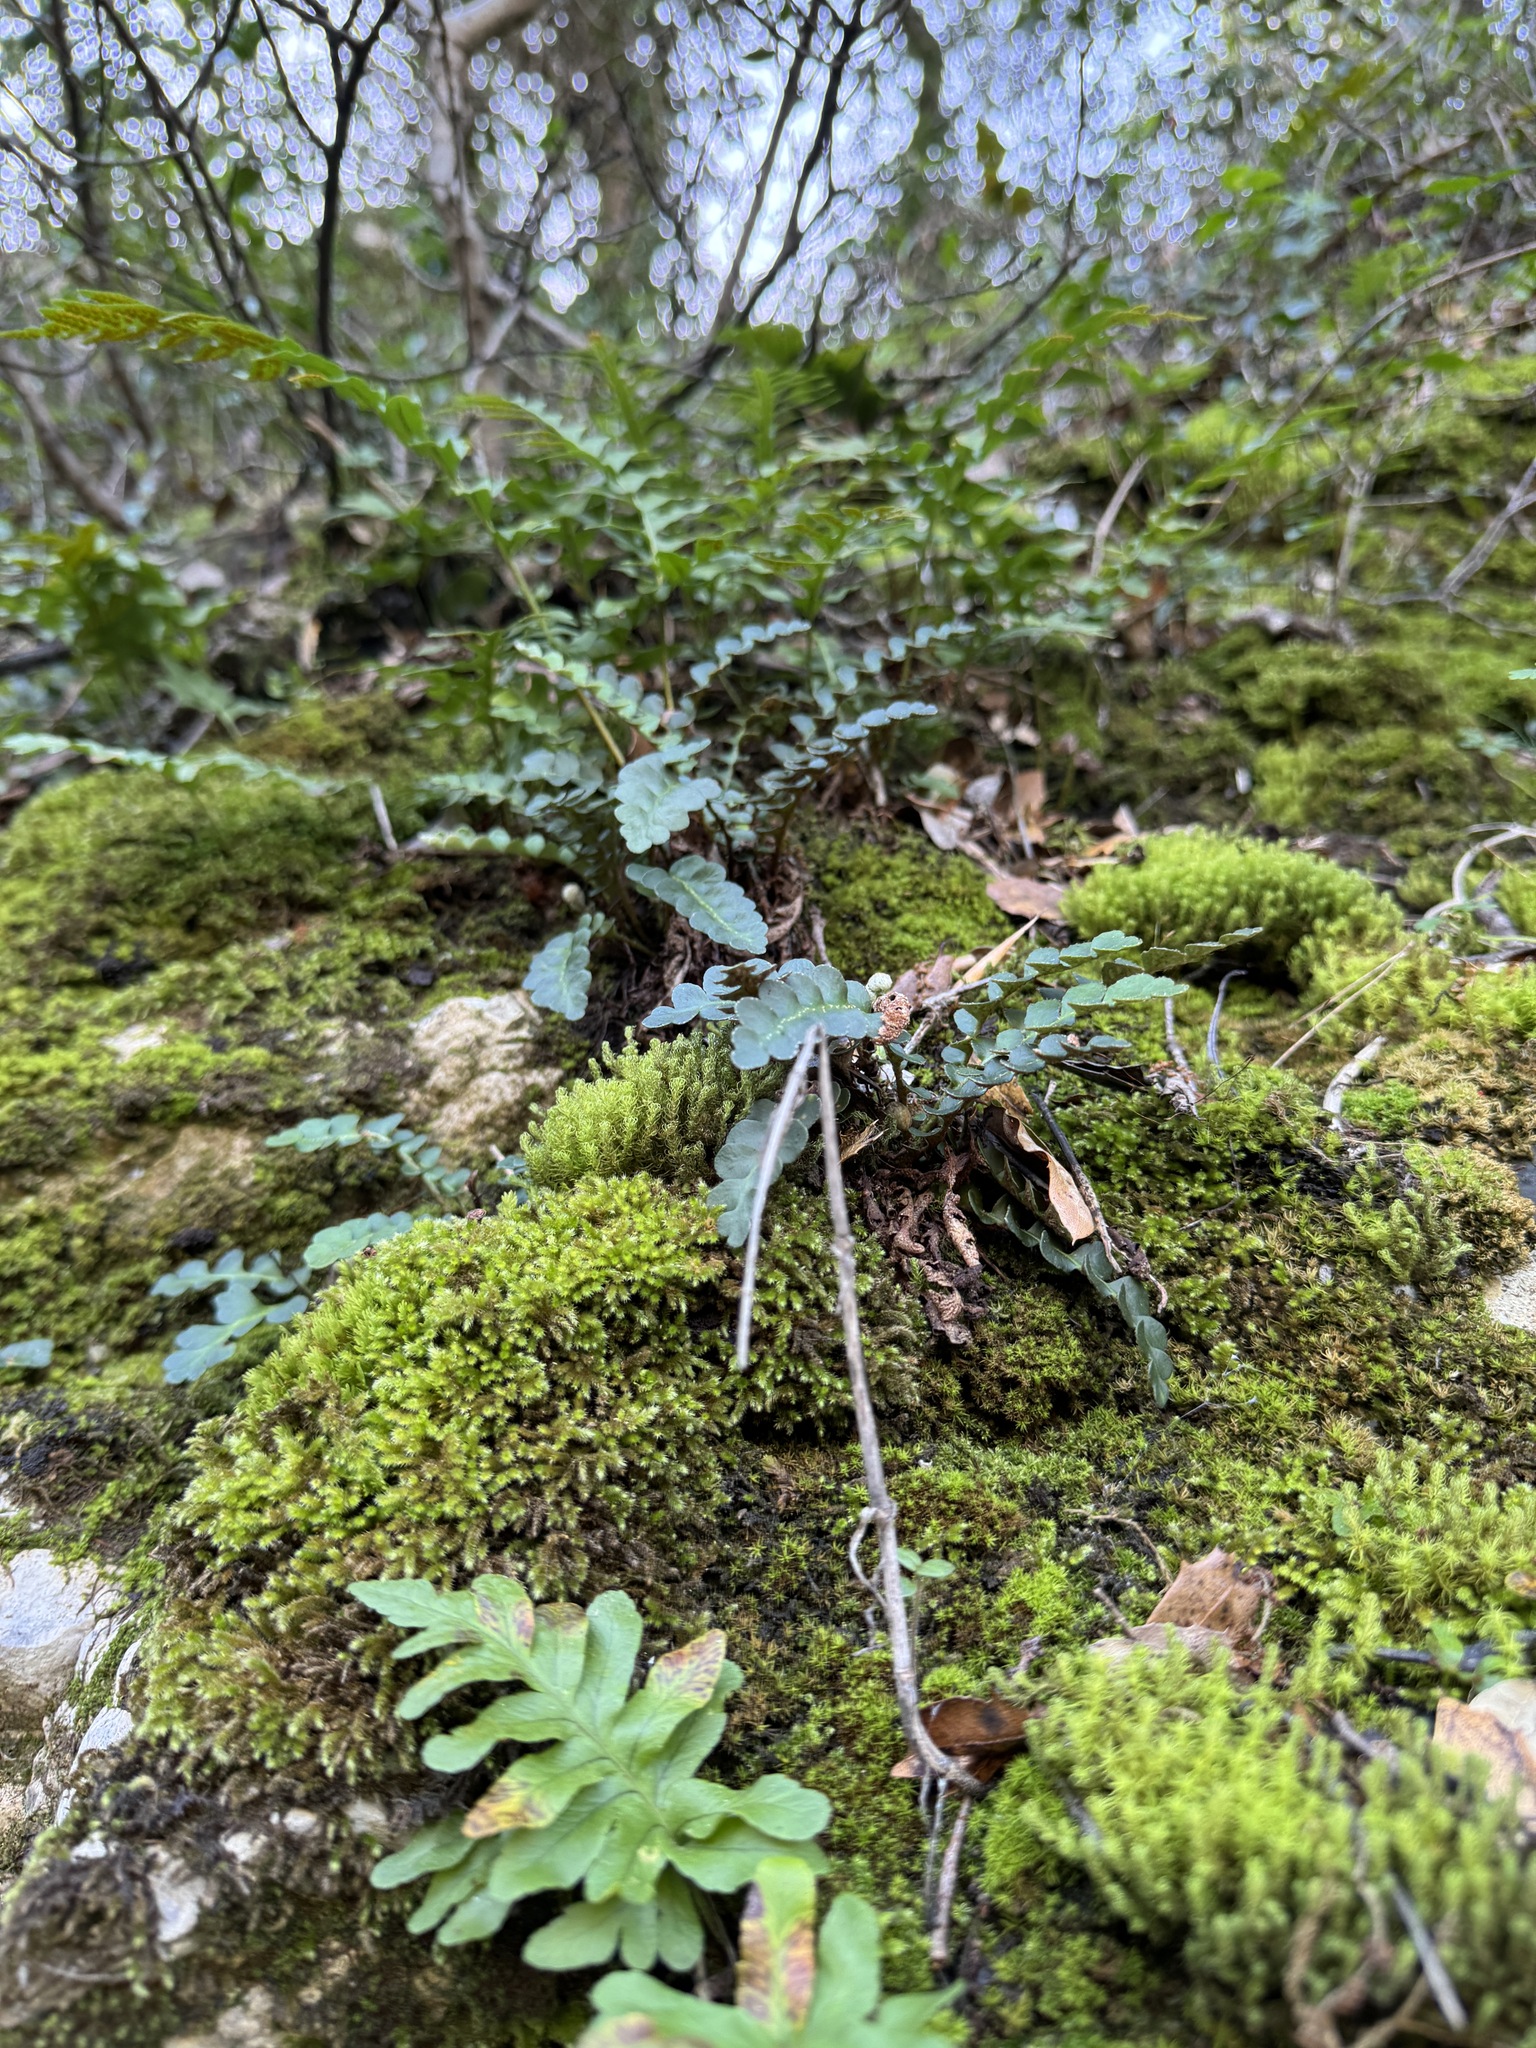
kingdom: Plantae
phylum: Tracheophyta
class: Polypodiopsida
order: Polypodiales
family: Aspleniaceae
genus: Asplenium
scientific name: Asplenium ceterach
